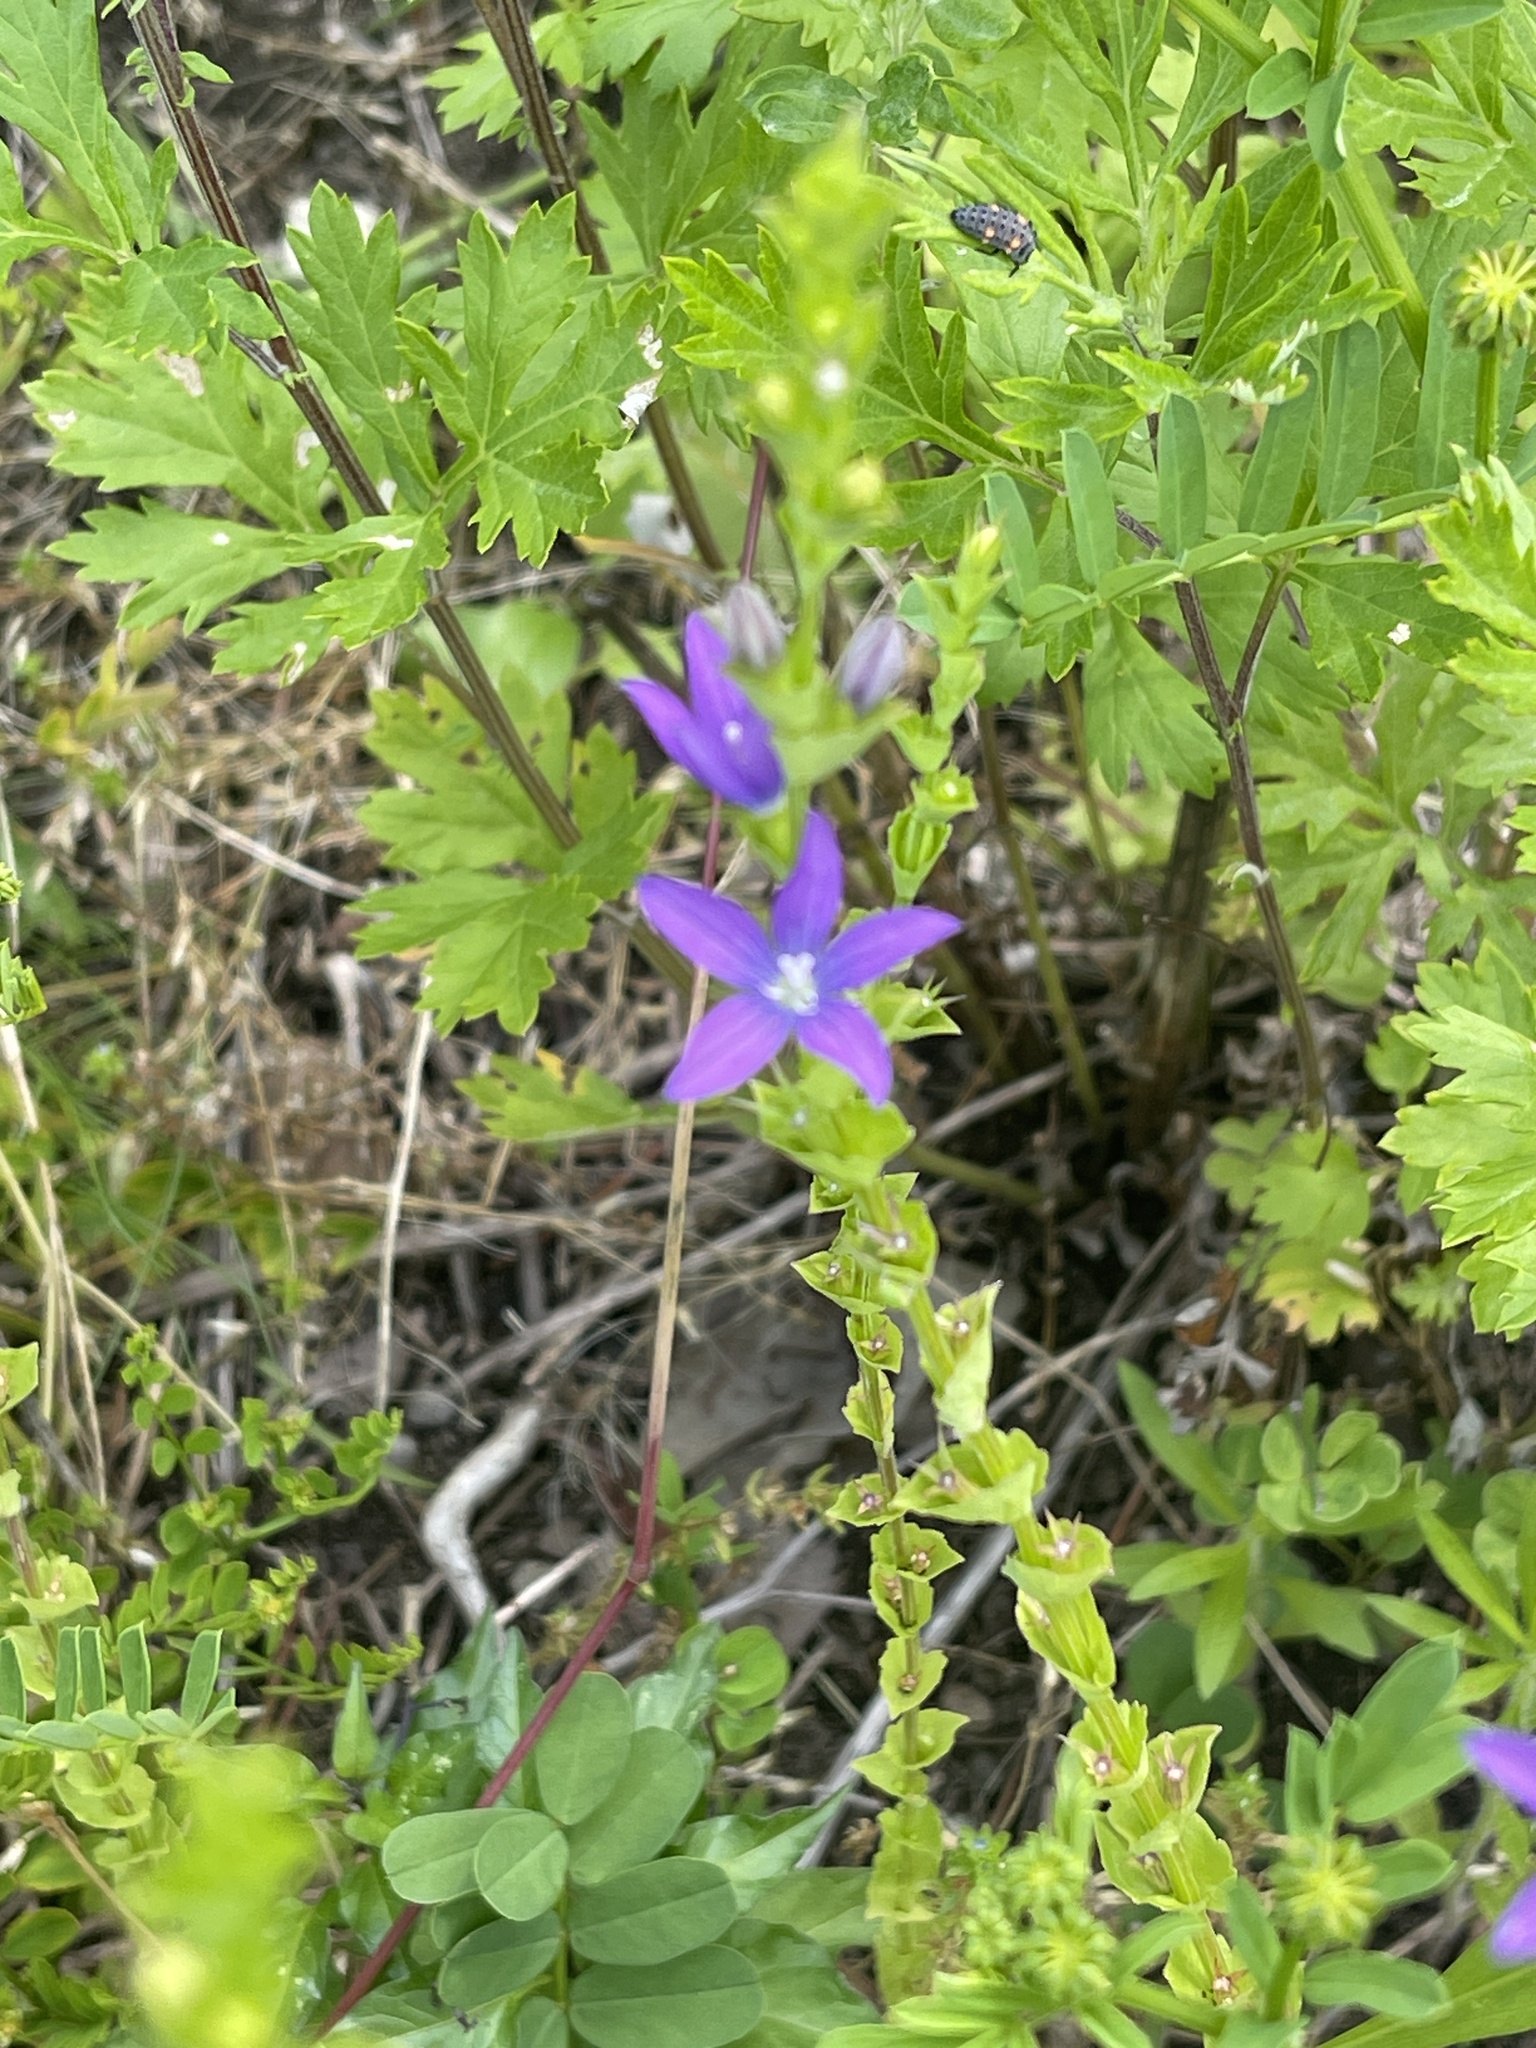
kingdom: Plantae
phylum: Tracheophyta
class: Magnoliopsida
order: Asterales
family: Campanulaceae
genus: Triodanis
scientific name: Triodanis perfoliata
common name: Clasping venus' looking-glass
